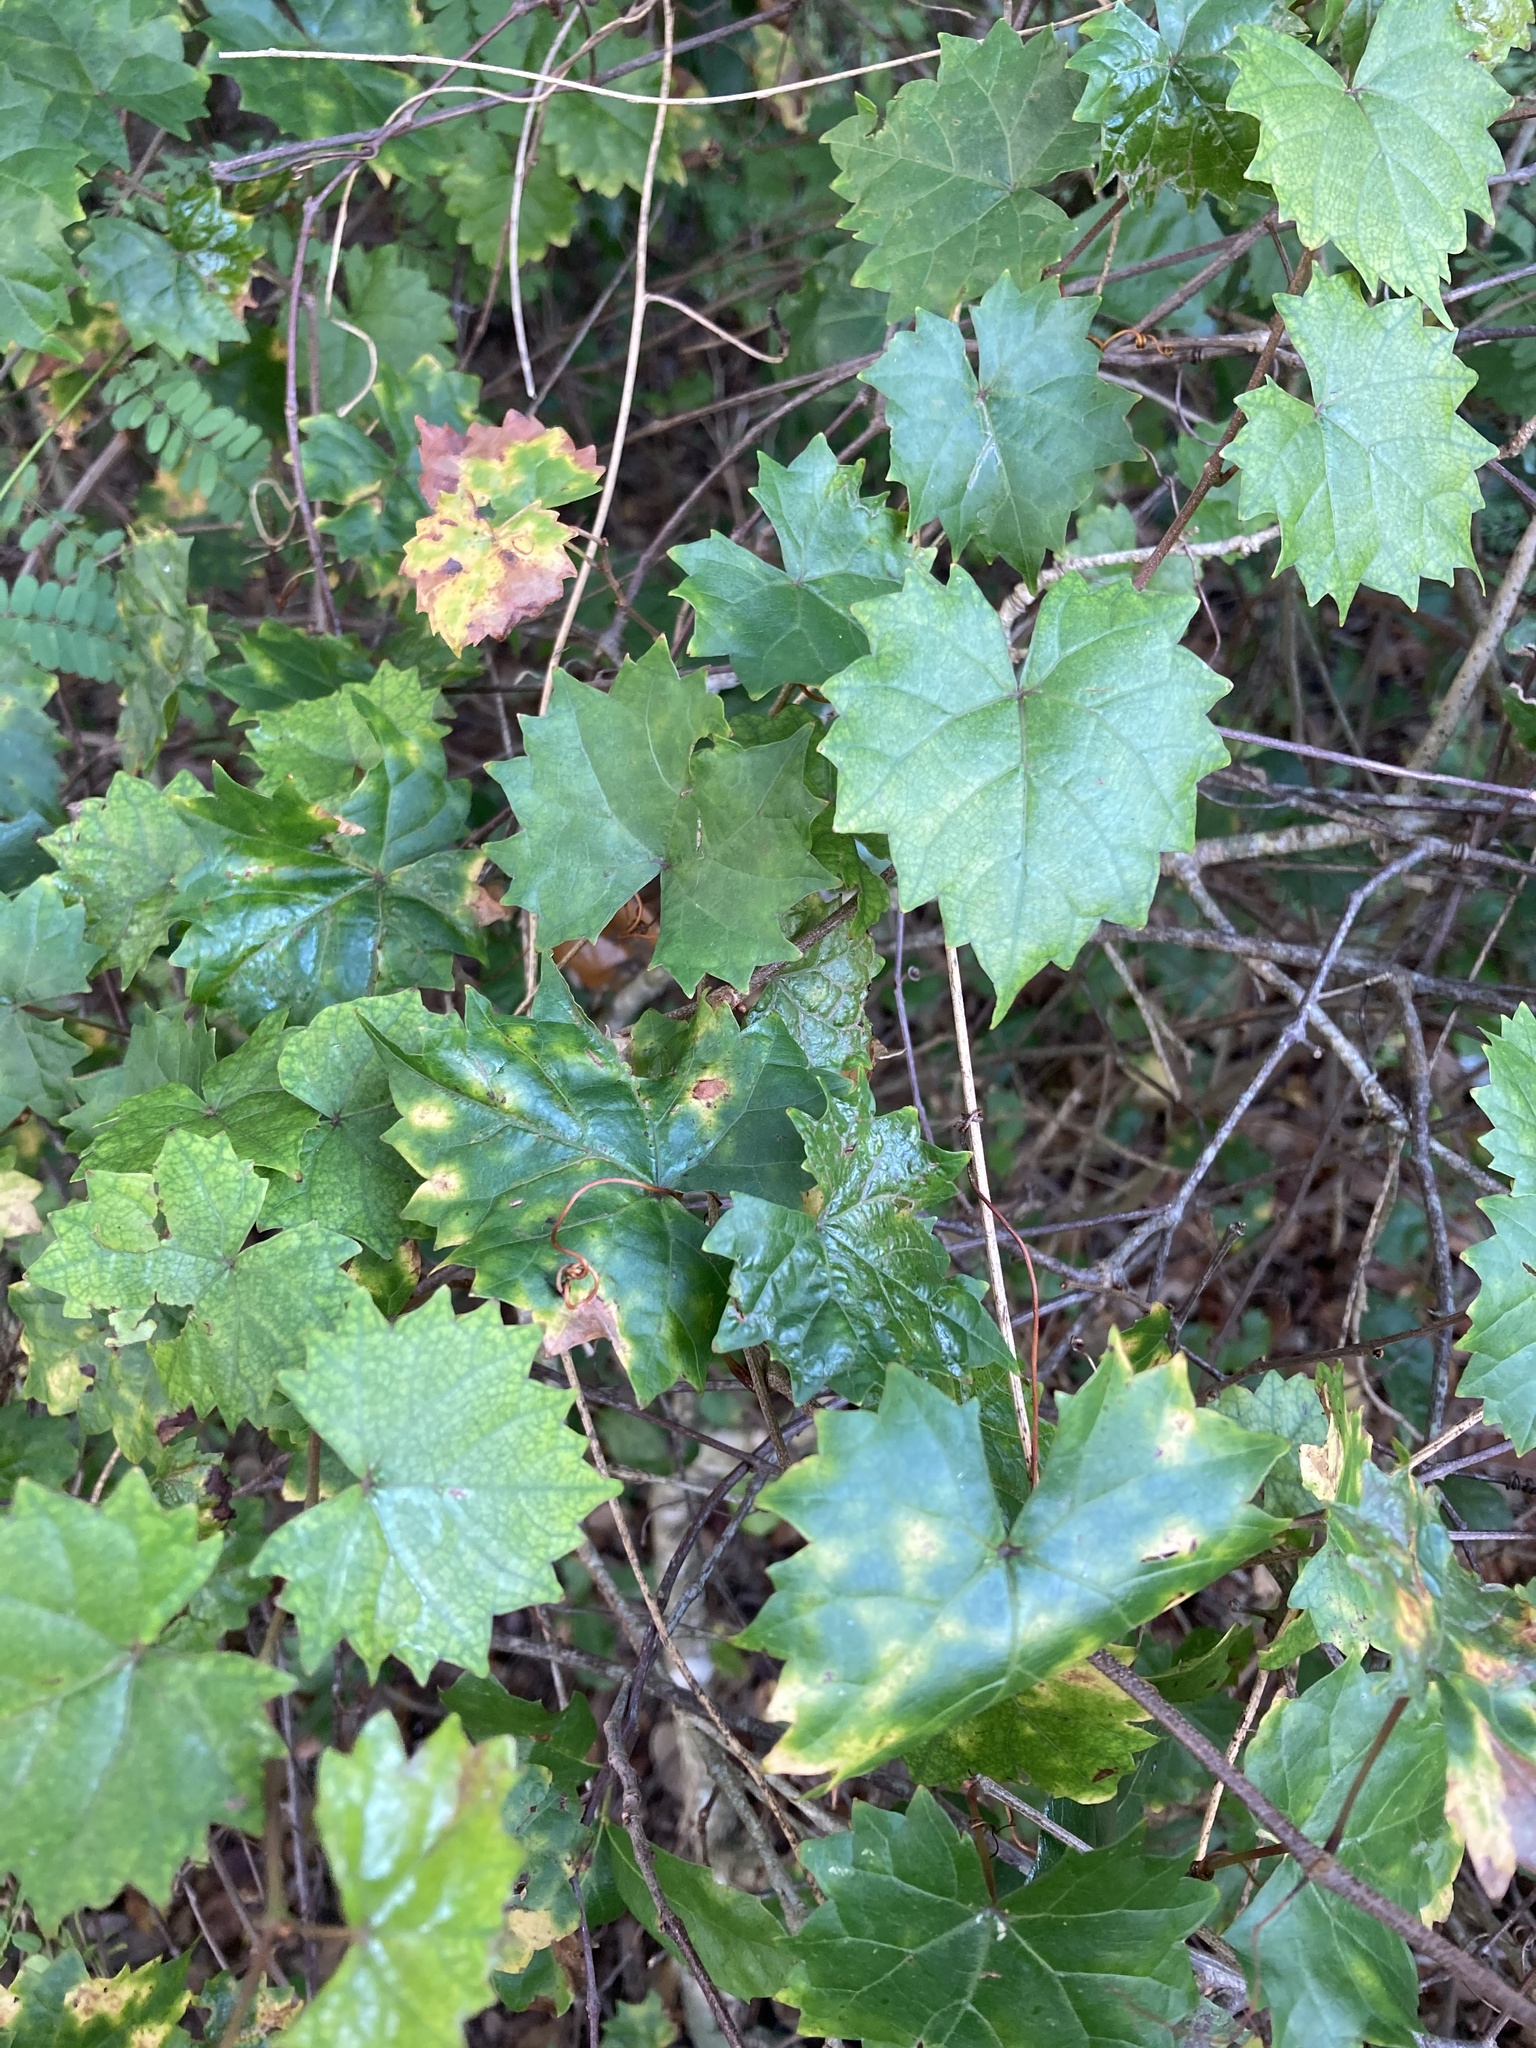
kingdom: Plantae
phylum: Tracheophyta
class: Magnoliopsida
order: Vitales
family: Vitaceae
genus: Vitis
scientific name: Vitis rotundifolia
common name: Muscadine grape
